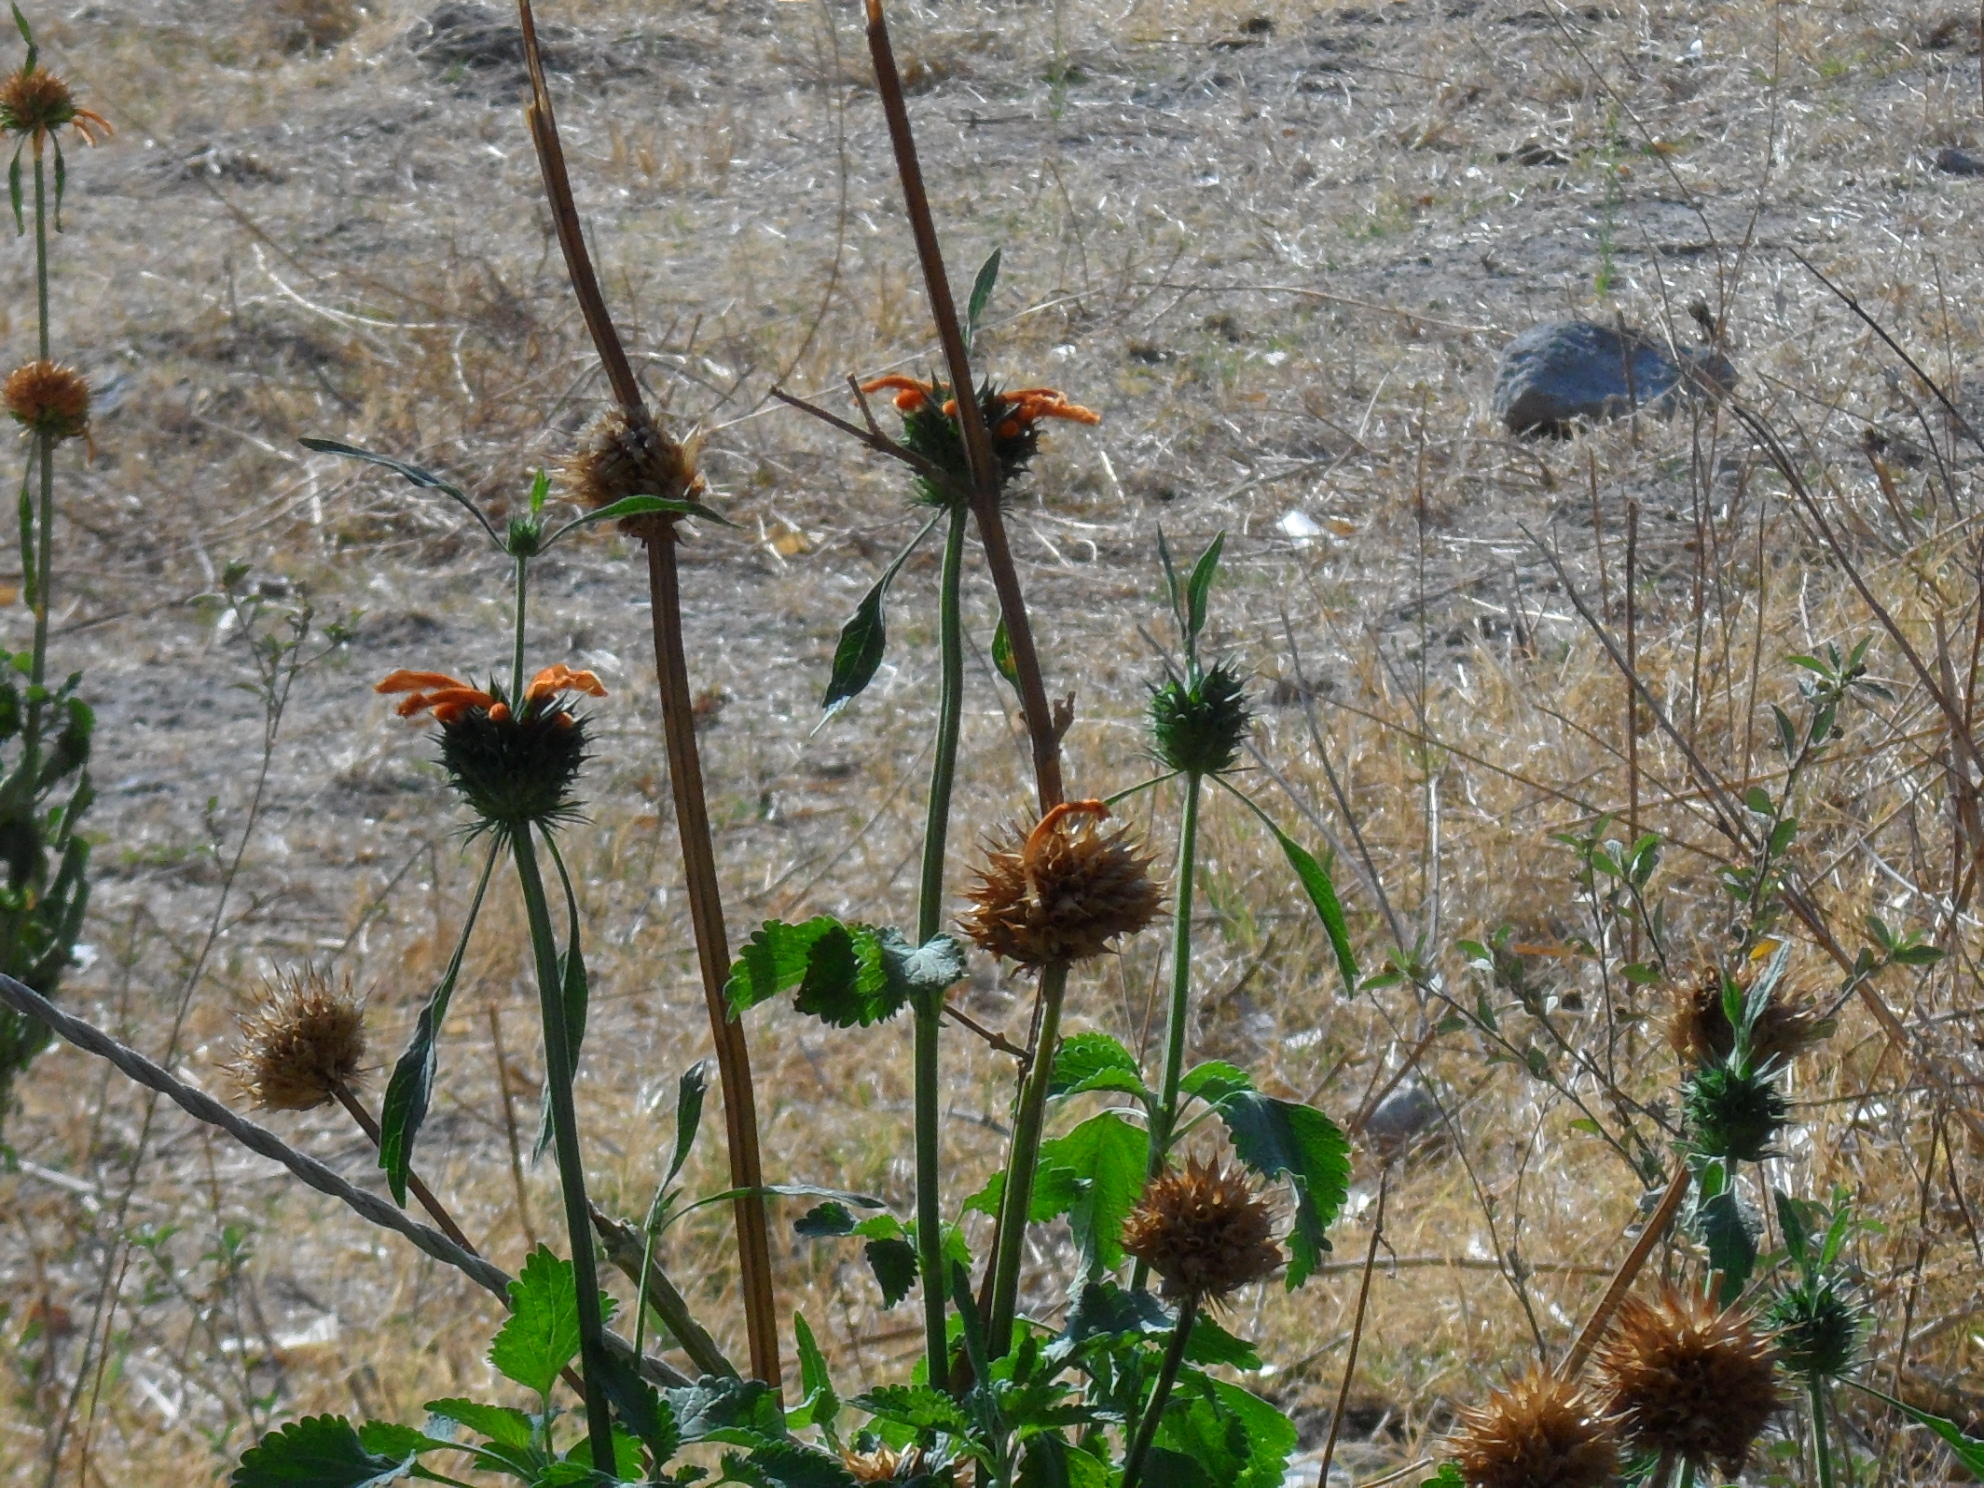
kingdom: Plantae
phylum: Tracheophyta
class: Magnoliopsida
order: Lamiales
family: Lamiaceae
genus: Leonotis
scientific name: Leonotis nepetifolia
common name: Christmas candlestick
